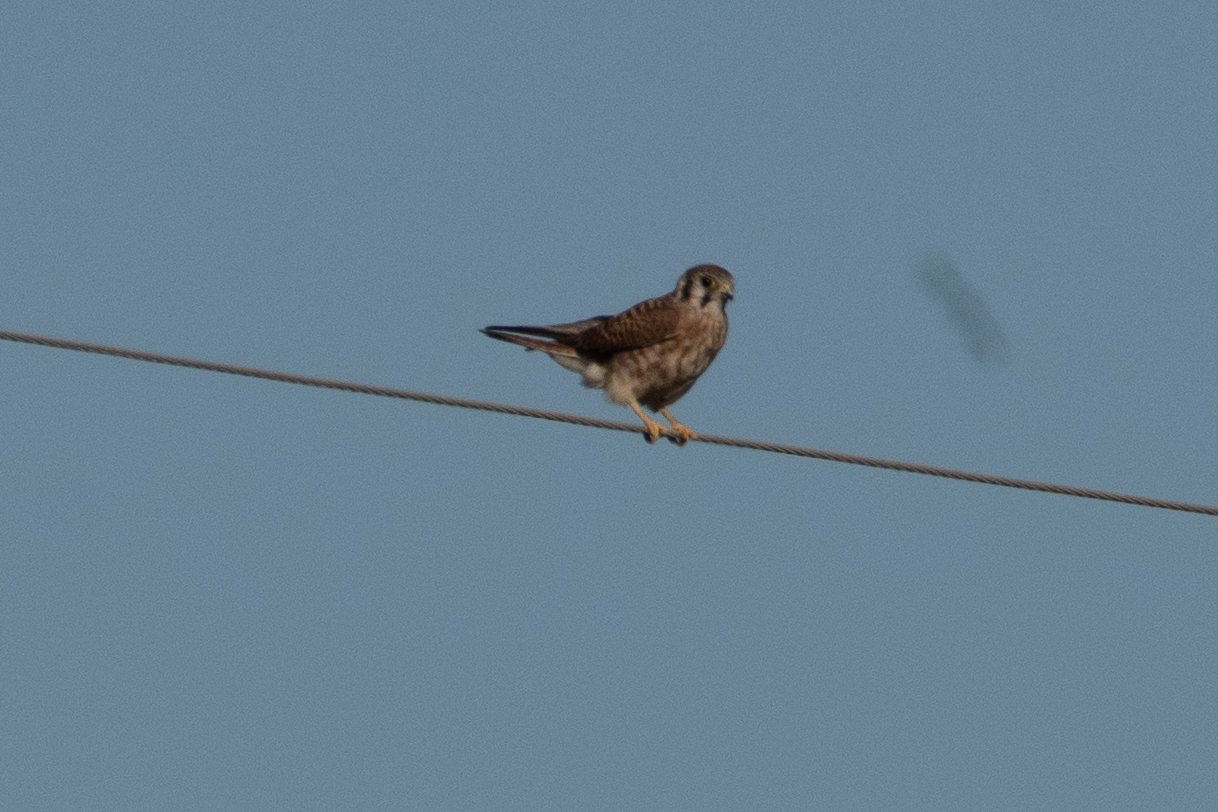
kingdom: Animalia
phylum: Chordata
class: Aves
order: Falconiformes
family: Falconidae
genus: Falco
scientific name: Falco sparverius
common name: American kestrel
